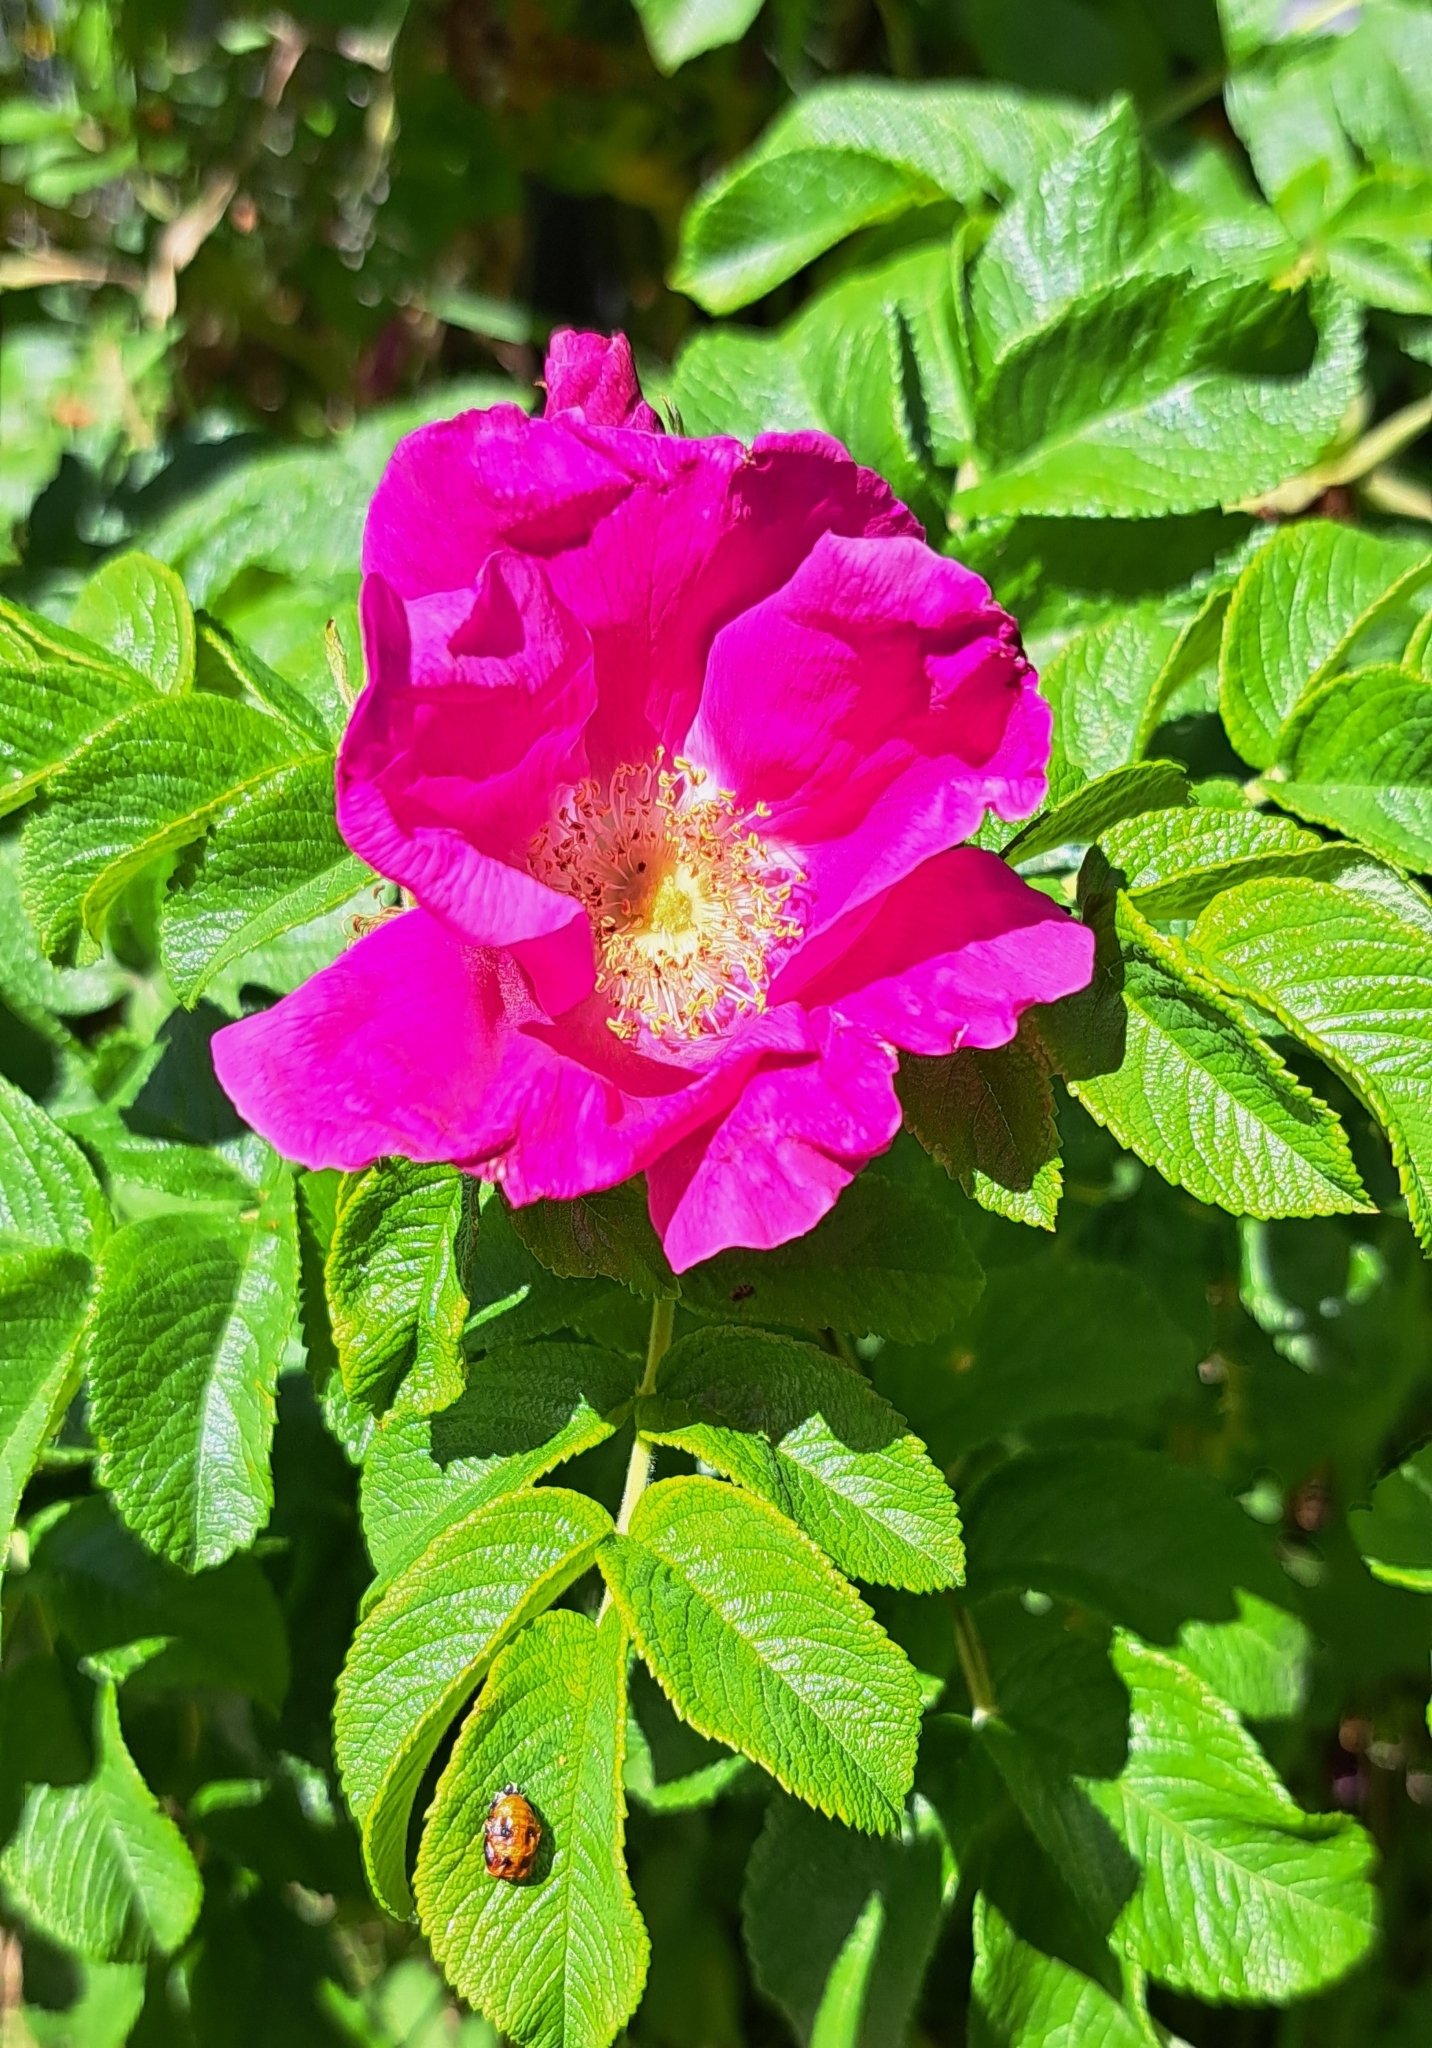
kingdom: Plantae
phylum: Tracheophyta
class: Magnoliopsida
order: Rosales
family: Rosaceae
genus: Rosa
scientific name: Rosa rugosa
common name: Japanese rose
